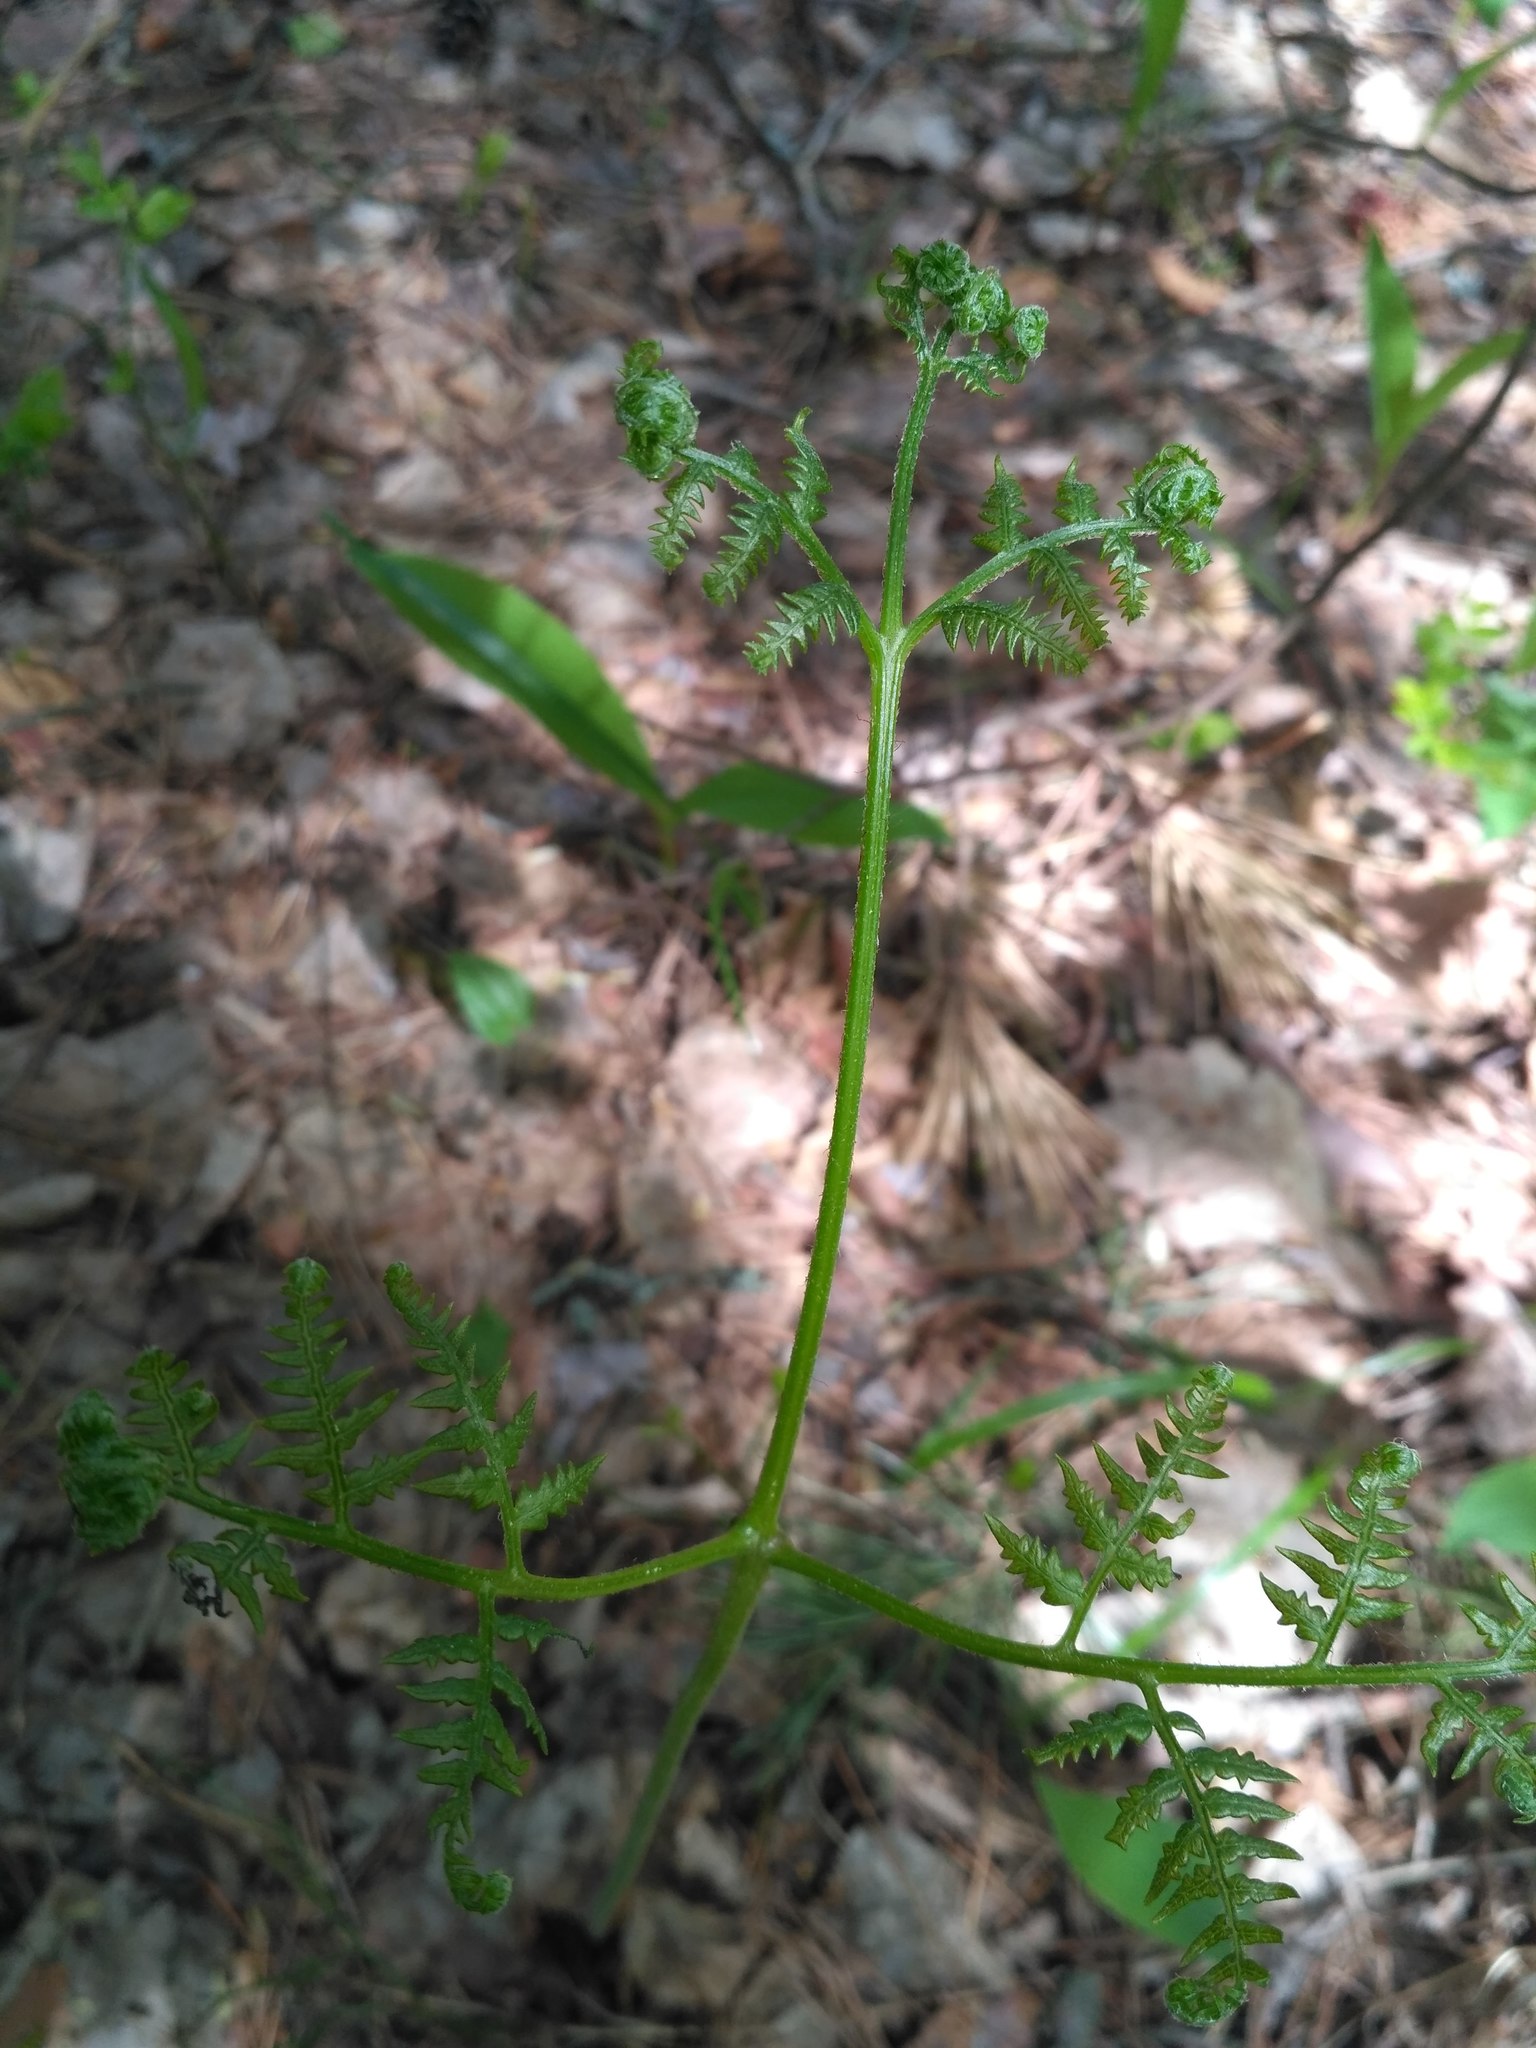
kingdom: Plantae
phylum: Tracheophyta
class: Polypodiopsida
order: Polypodiales
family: Dennstaedtiaceae
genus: Pteridium
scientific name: Pteridium aquilinum
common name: Bracken
